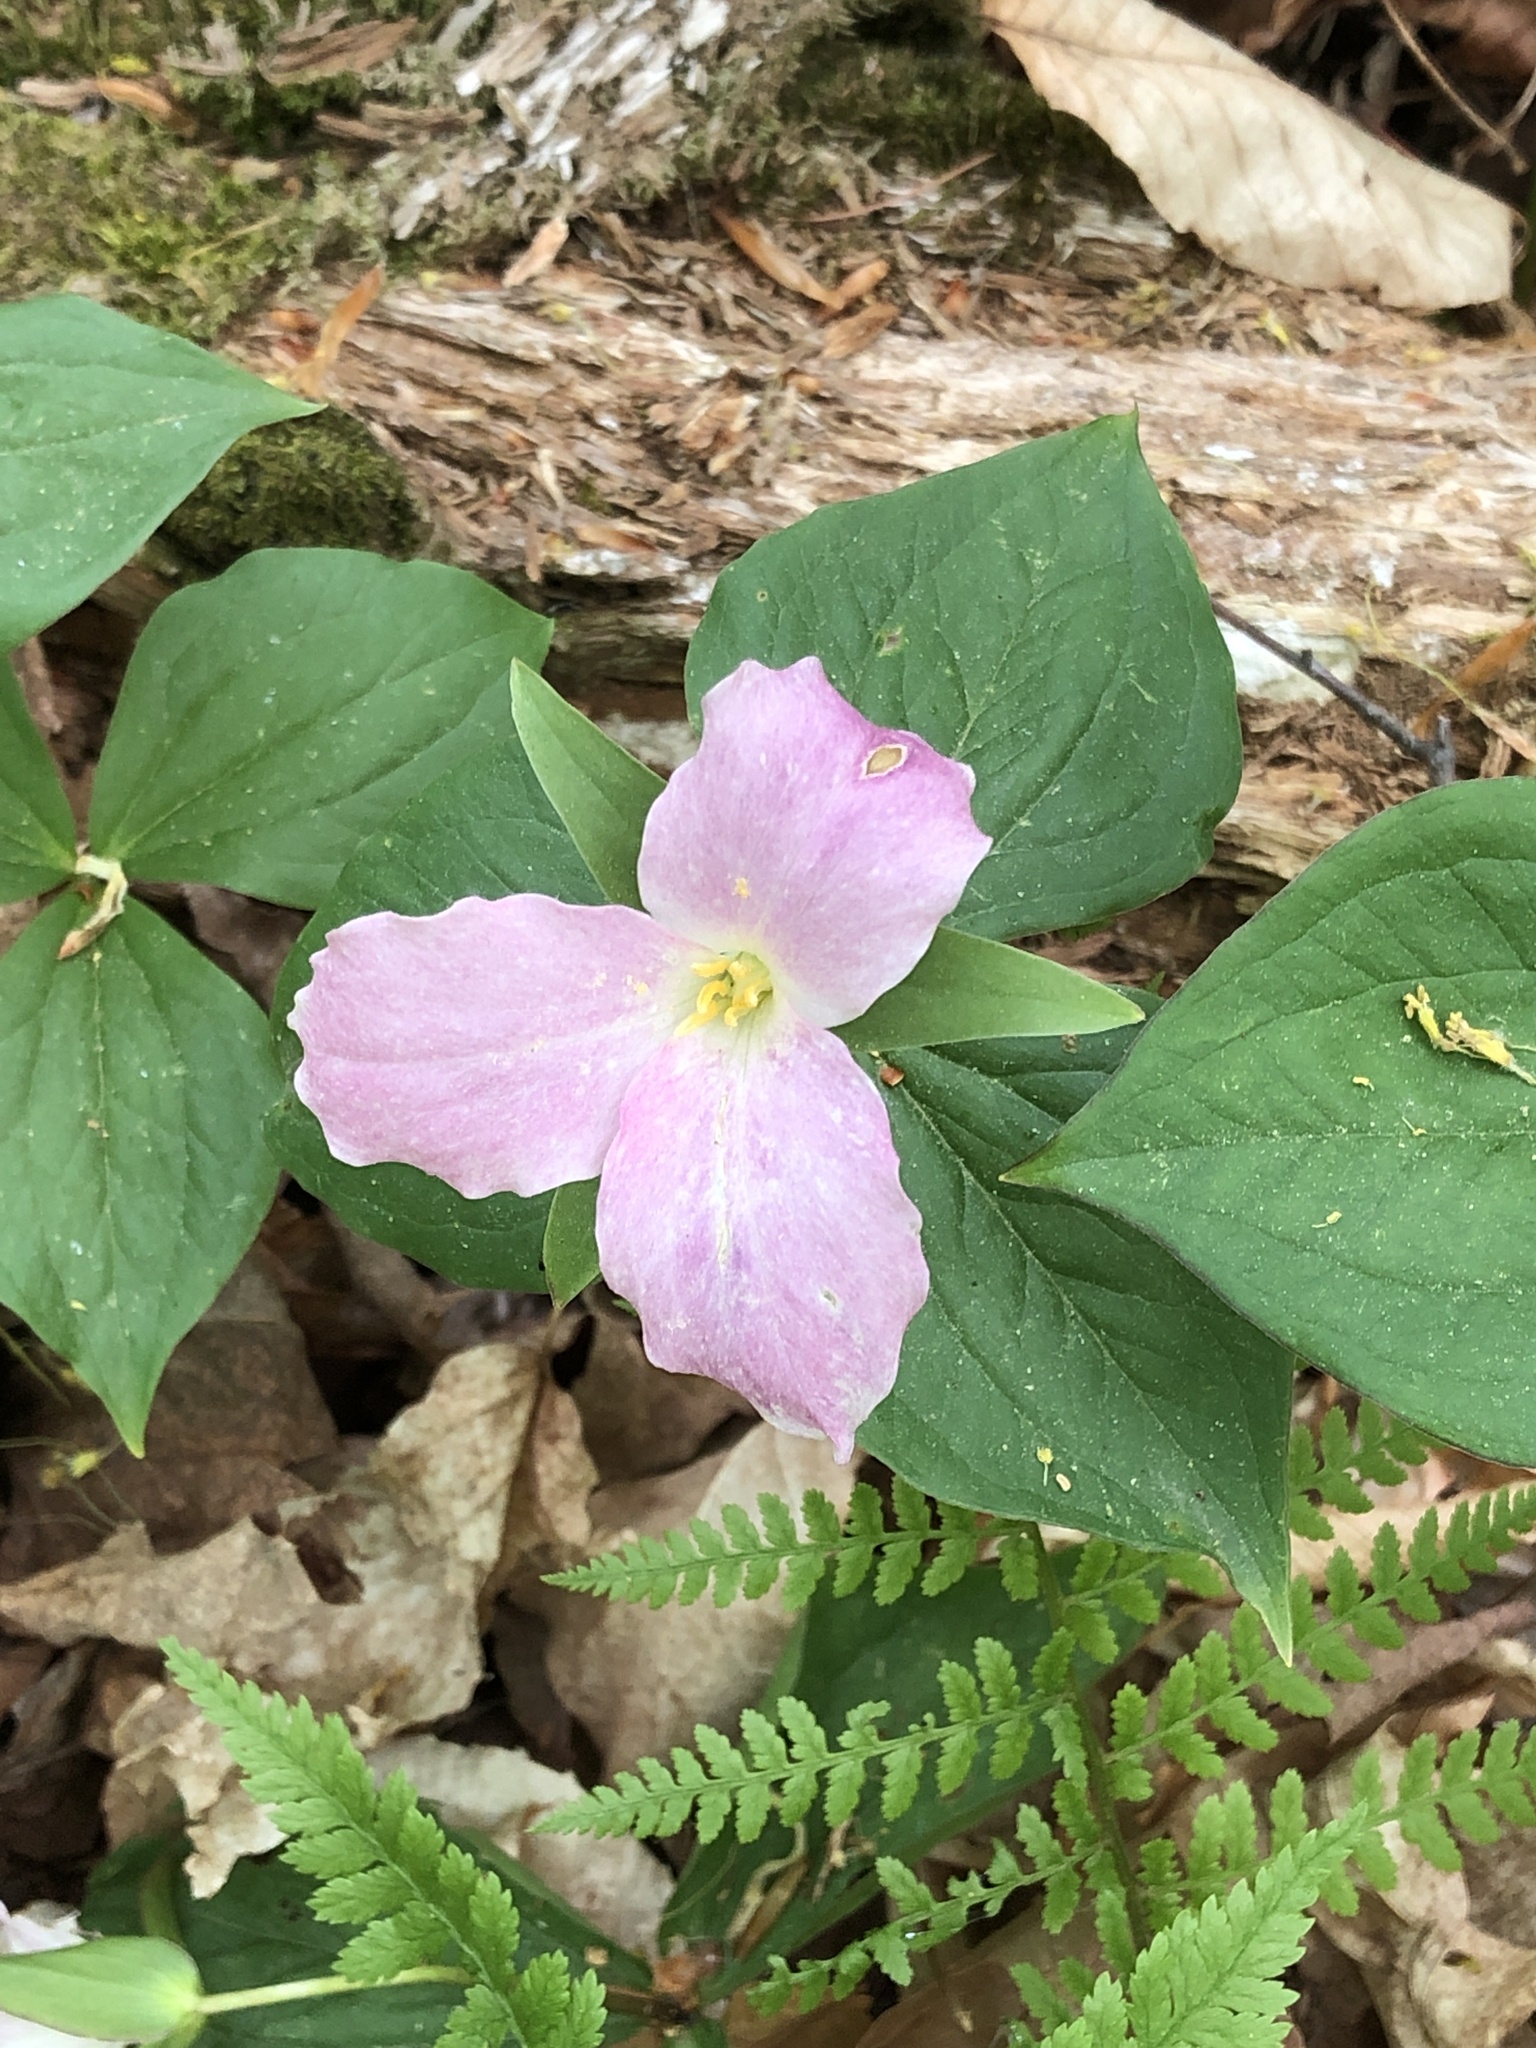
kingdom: Plantae
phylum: Tracheophyta
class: Liliopsida
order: Liliales
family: Melanthiaceae
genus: Trillium
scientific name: Trillium grandiflorum
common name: Great white trillium
